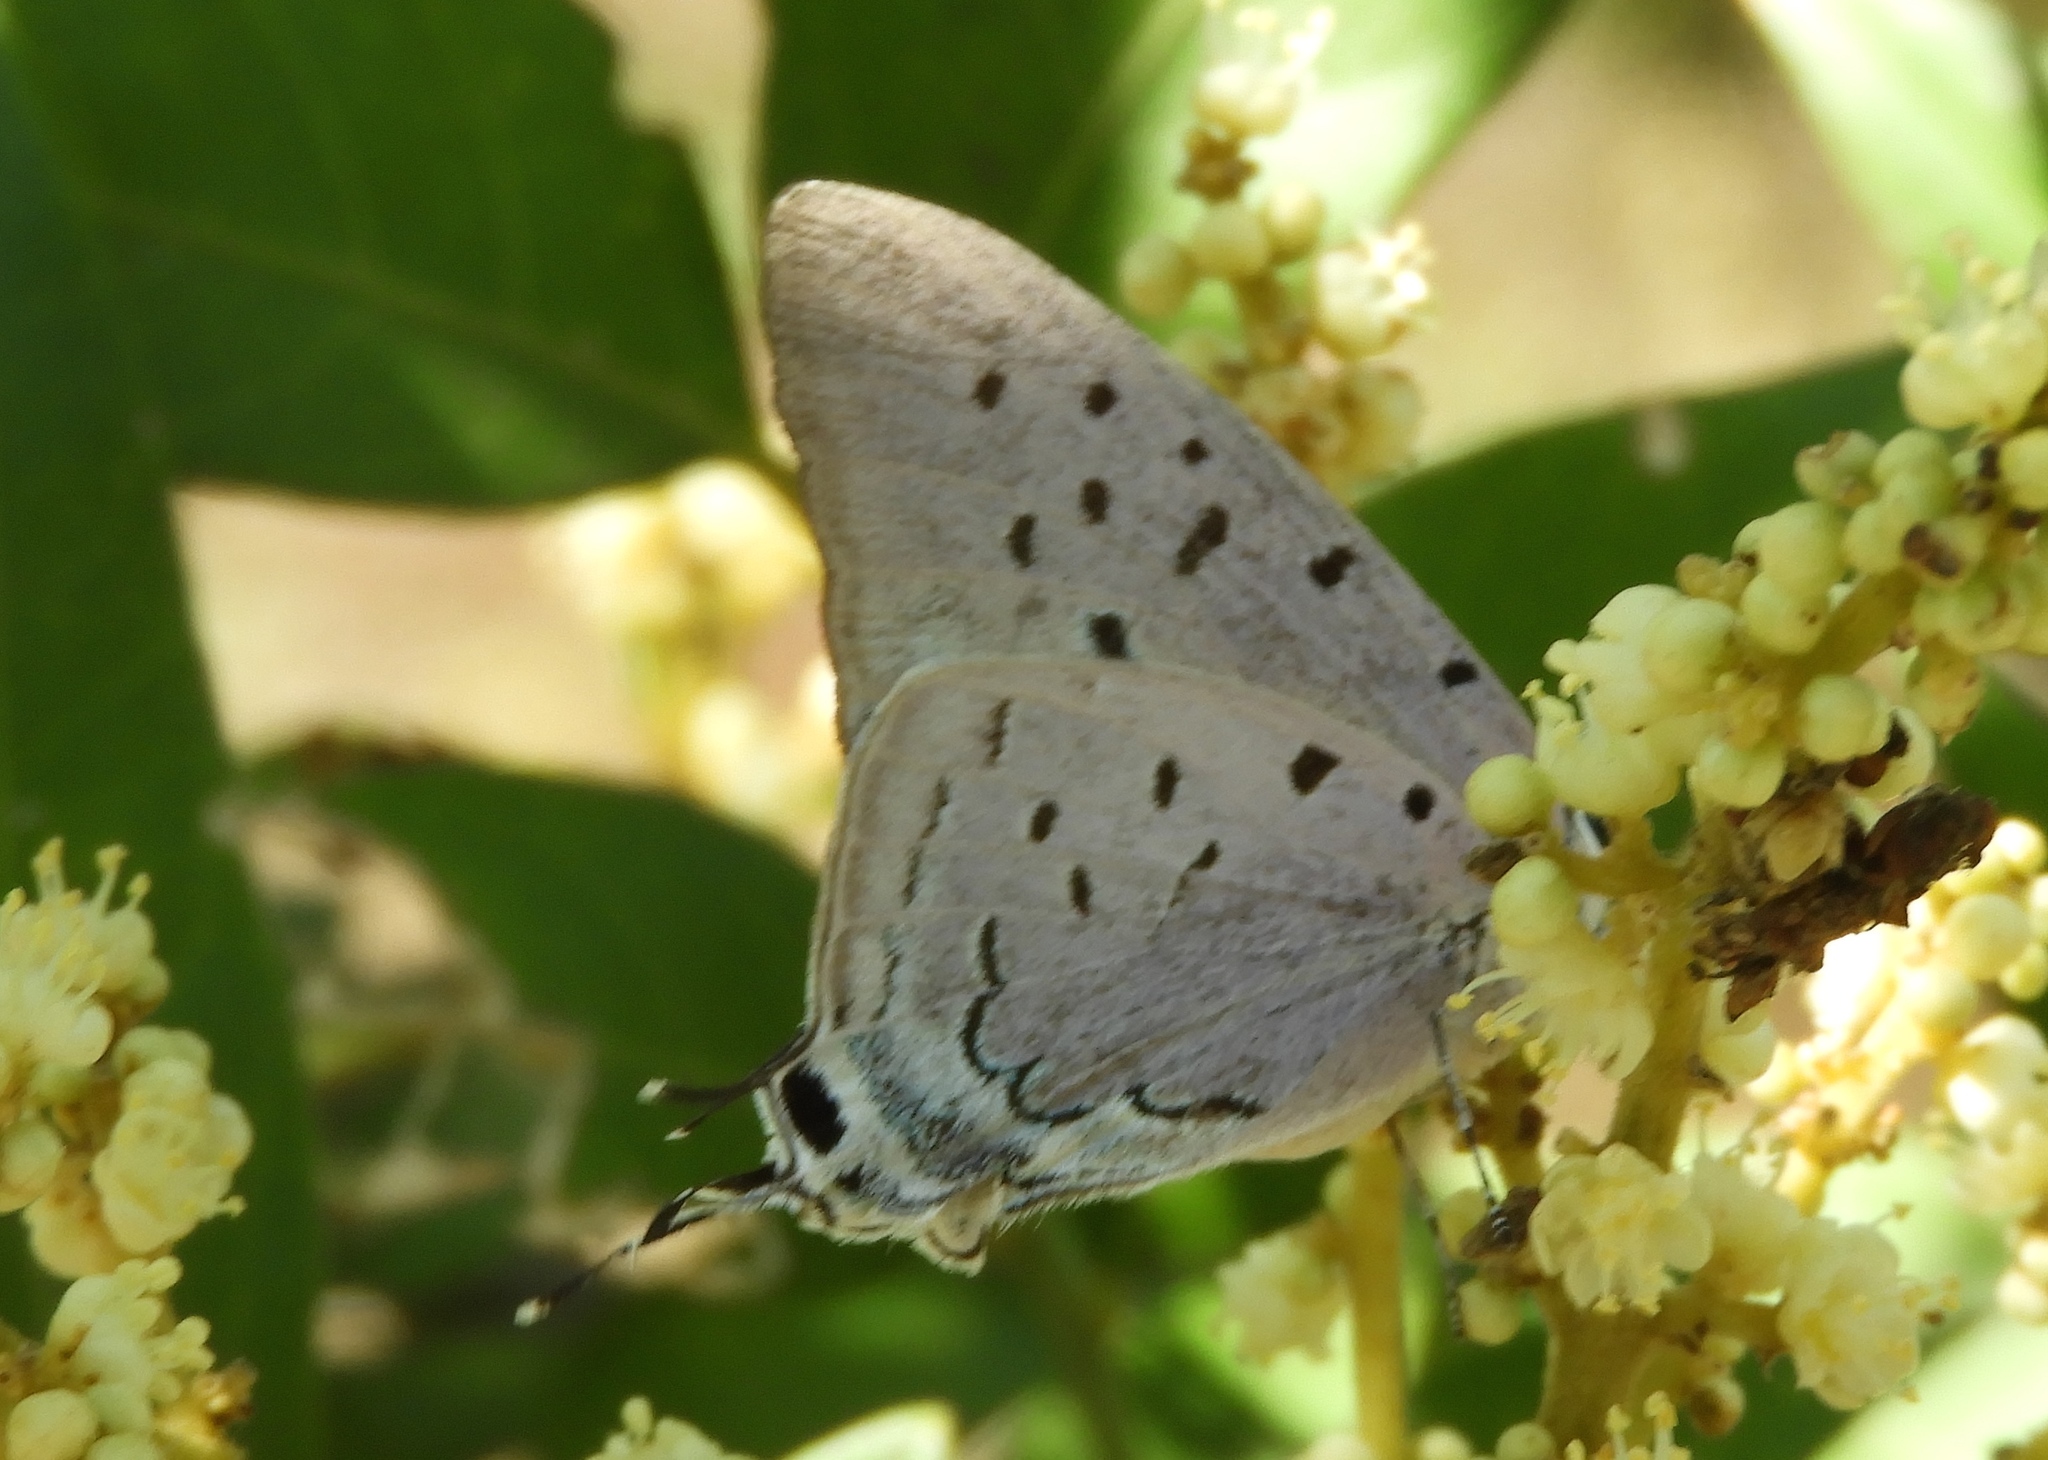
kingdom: Animalia
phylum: Arthropoda
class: Insecta
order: Lepidoptera
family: Lycaenidae
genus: Pseudolycaena
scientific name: Pseudolycaena damo
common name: Sky-blue hairstreak
